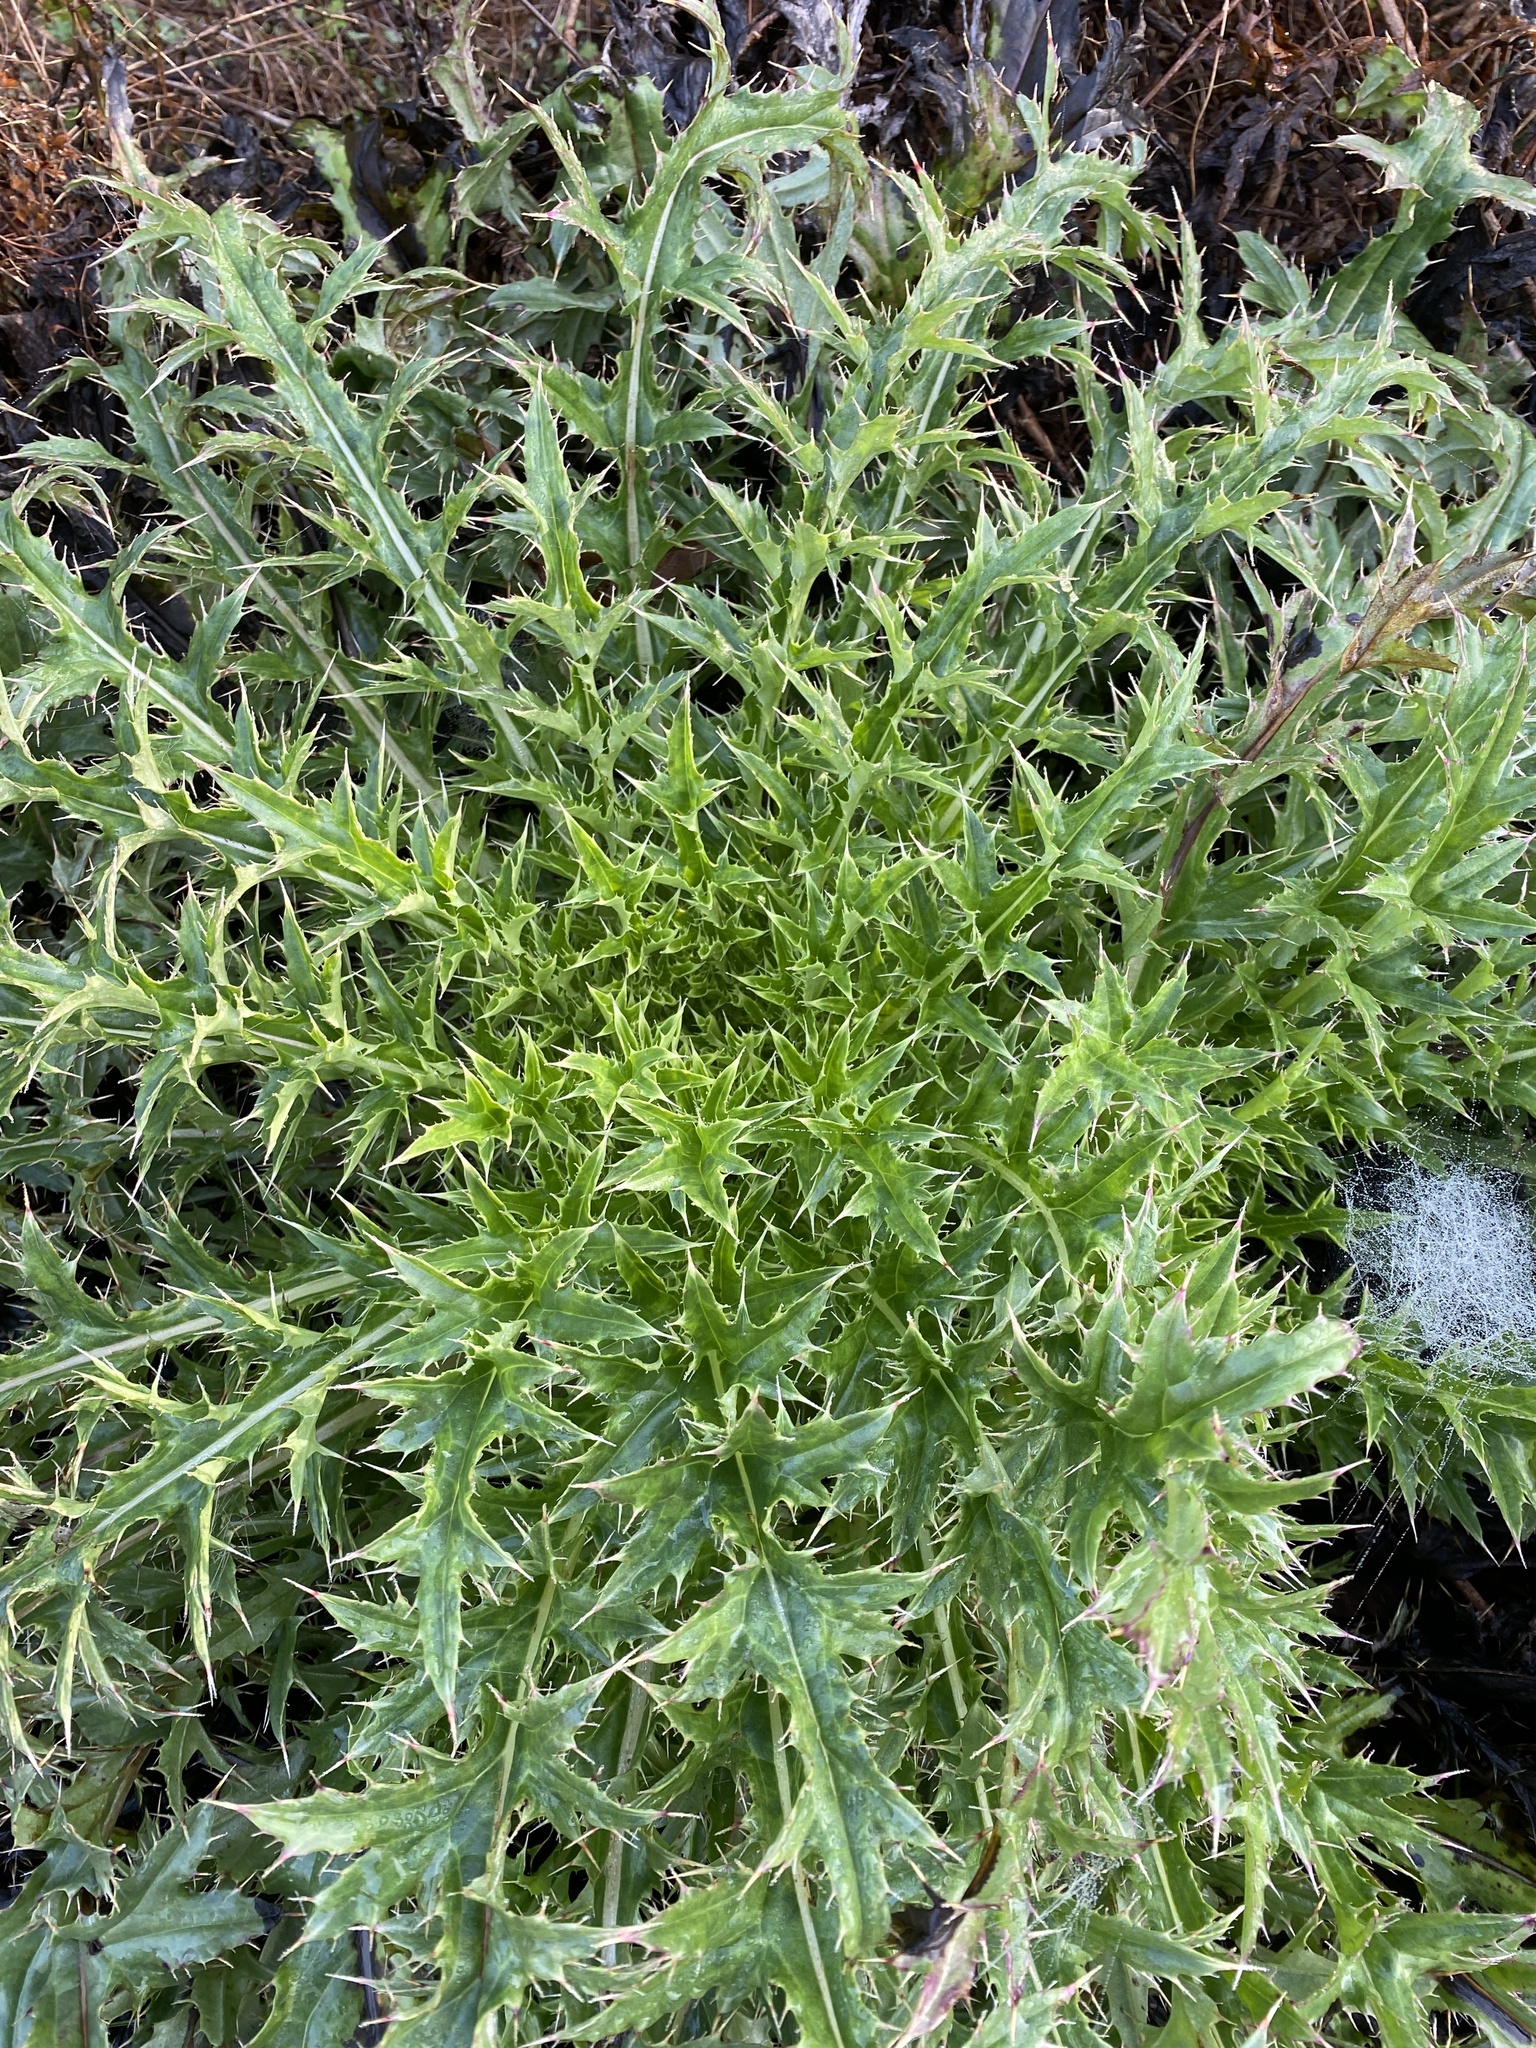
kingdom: Plantae
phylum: Tracheophyta
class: Magnoliopsida
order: Asterales
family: Asteraceae
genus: Cirsium
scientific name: Cirsium horridulum
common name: Bristly thistle
